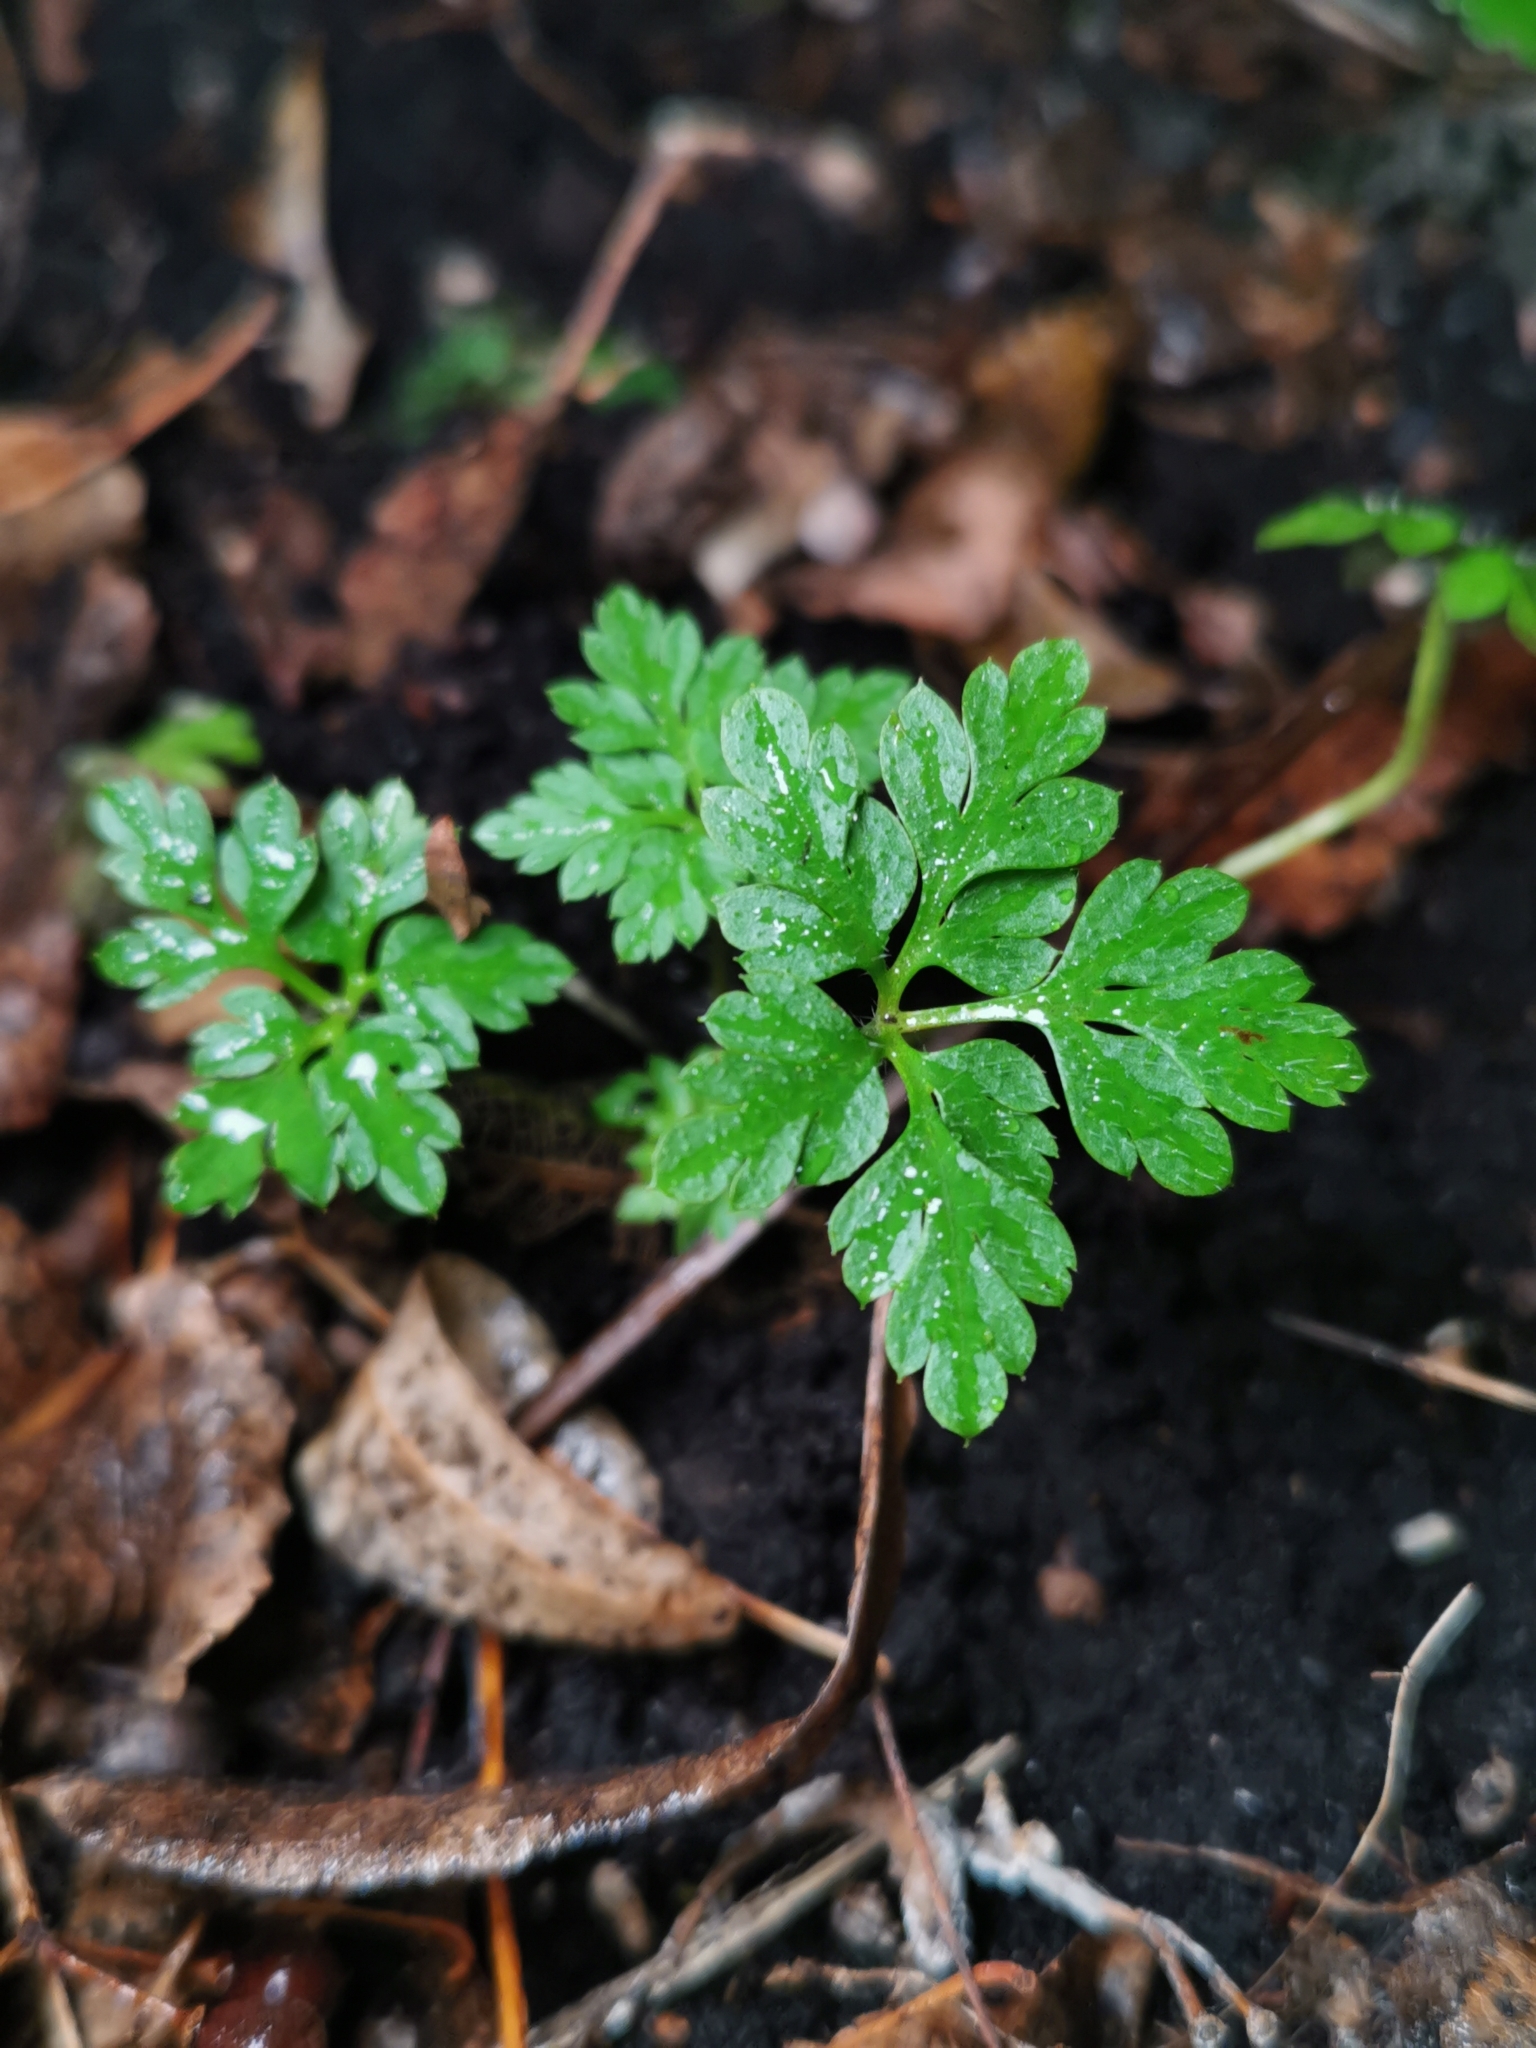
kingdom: Plantae
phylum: Tracheophyta
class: Magnoliopsida
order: Geraniales
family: Geraniaceae
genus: Geranium
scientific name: Geranium robertianum
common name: Herb-robert
